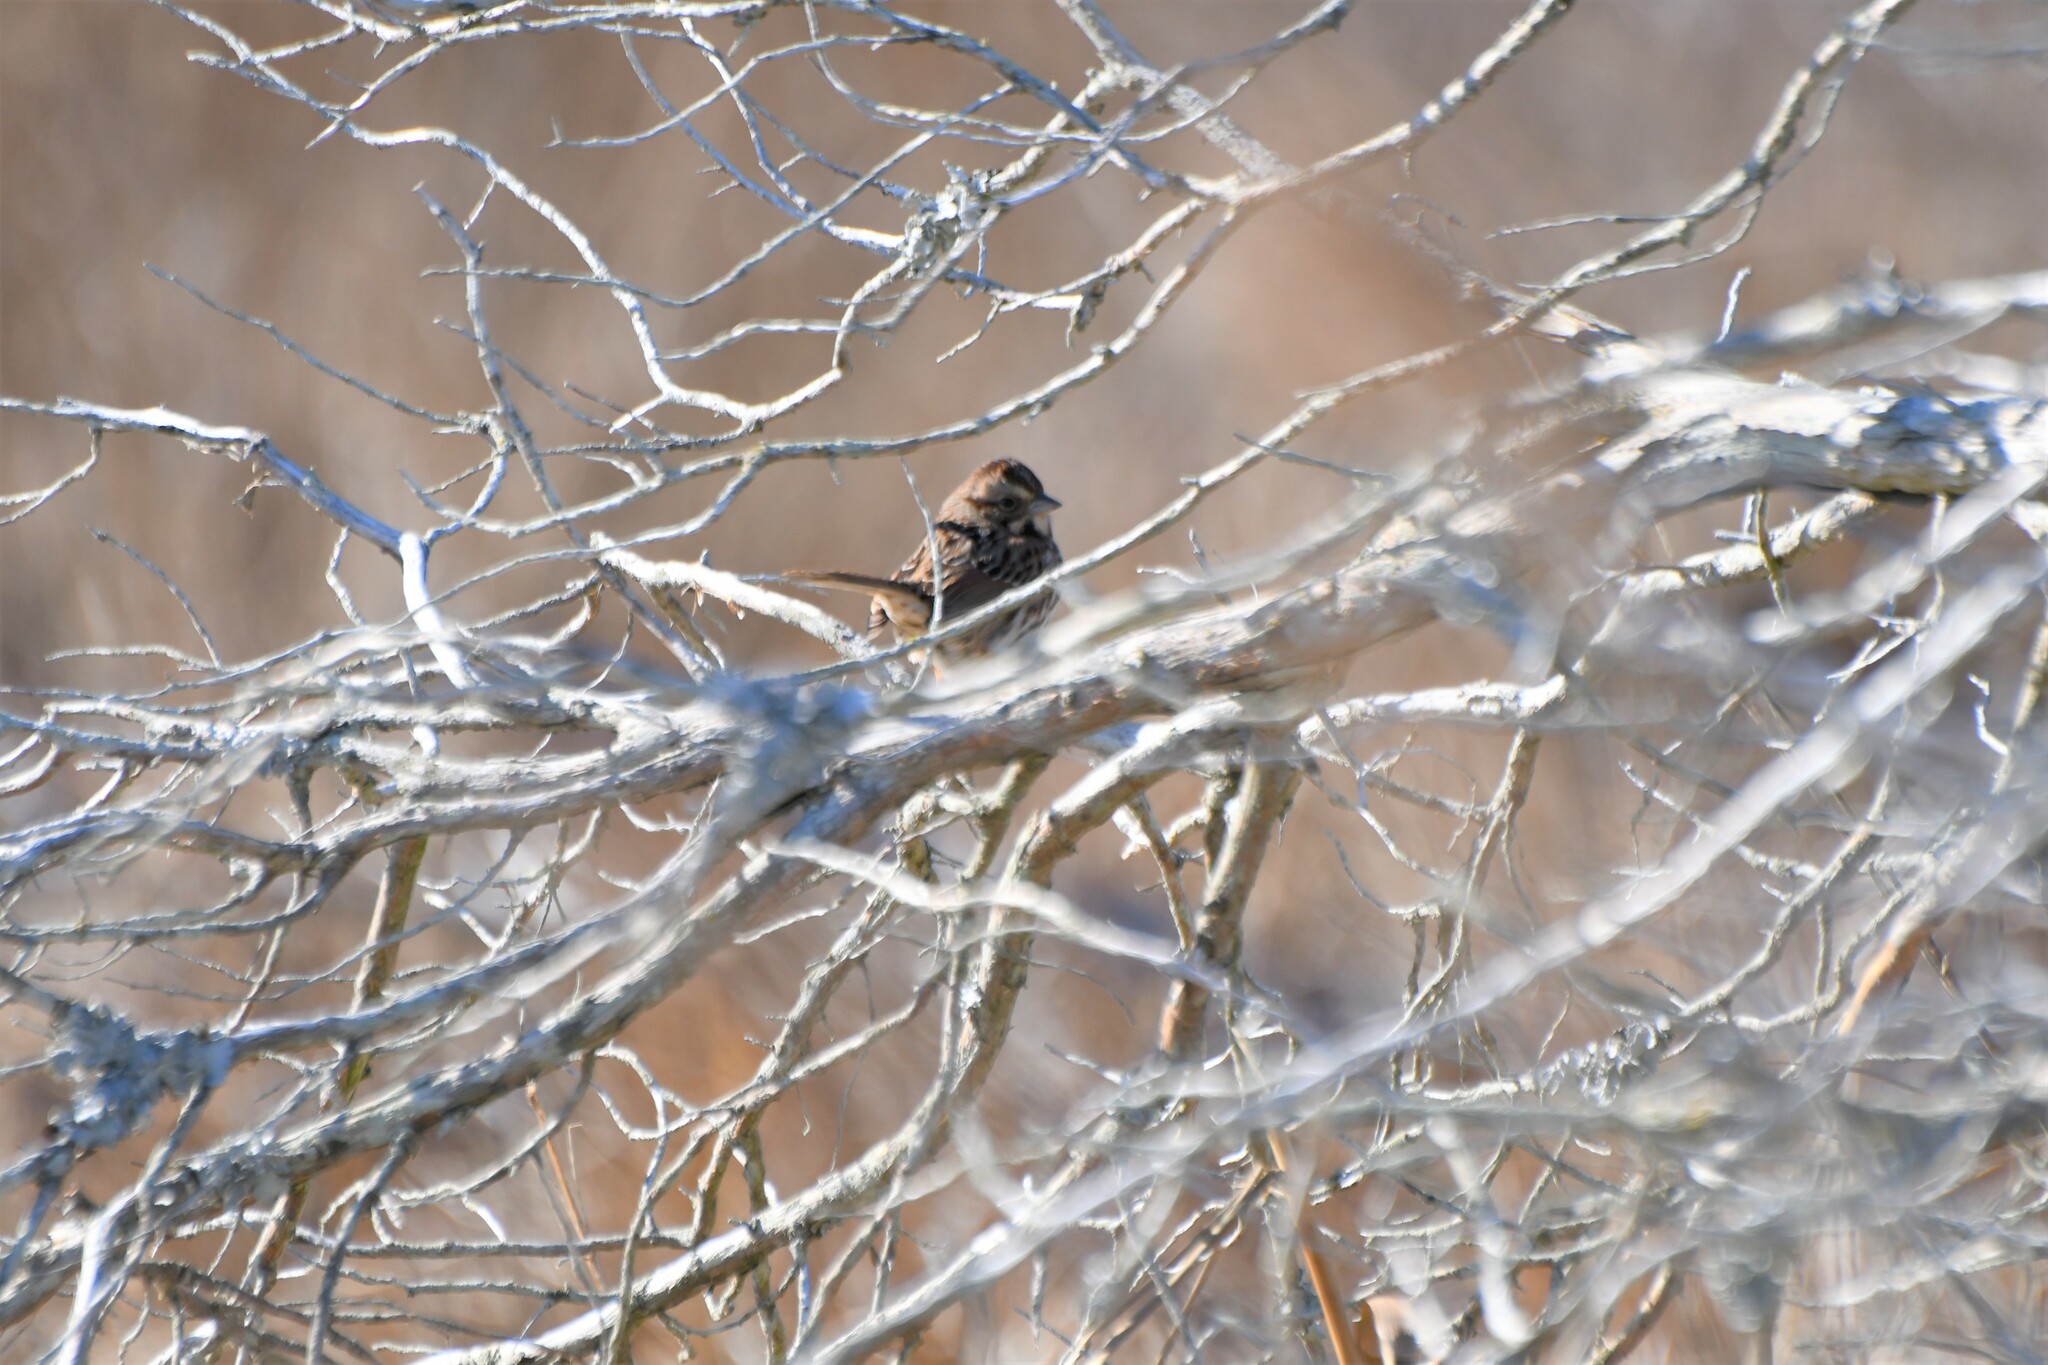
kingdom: Animalia
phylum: Chordata
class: Aves
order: Passeriformes
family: Passerellidae
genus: Melospiza
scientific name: Melospiza melodia
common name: Song sparrow
